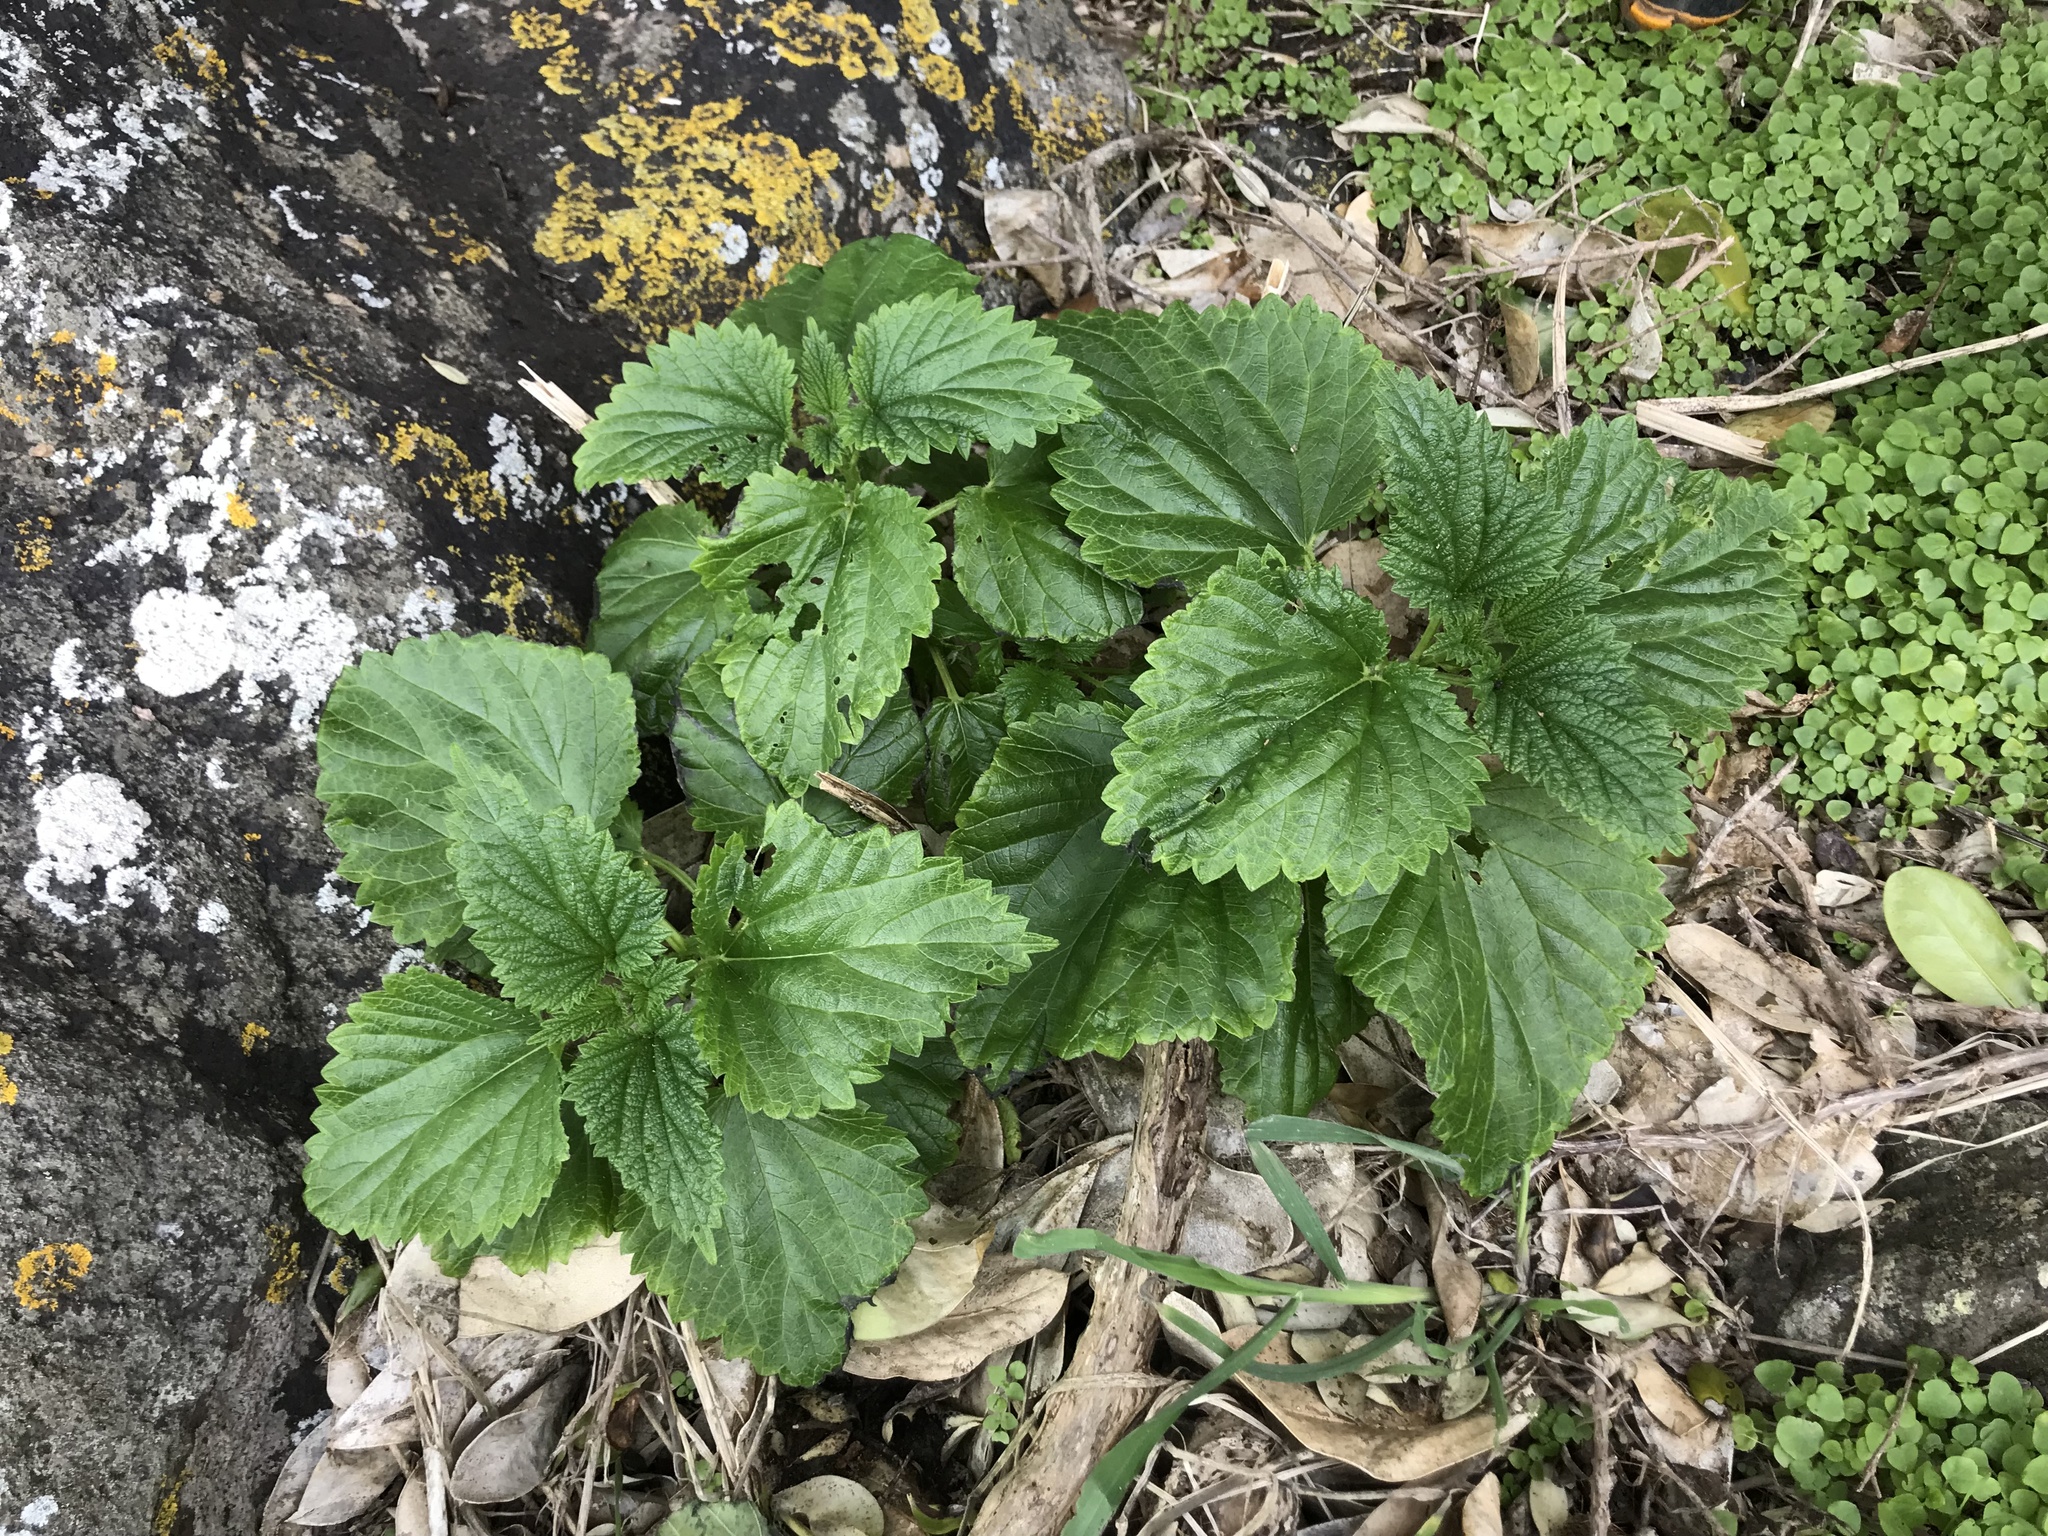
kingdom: Plantae
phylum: Tracheophyta
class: Magnoliopsida
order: Rosales
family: Urticaceae
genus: Urtica
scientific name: Urtica australis
